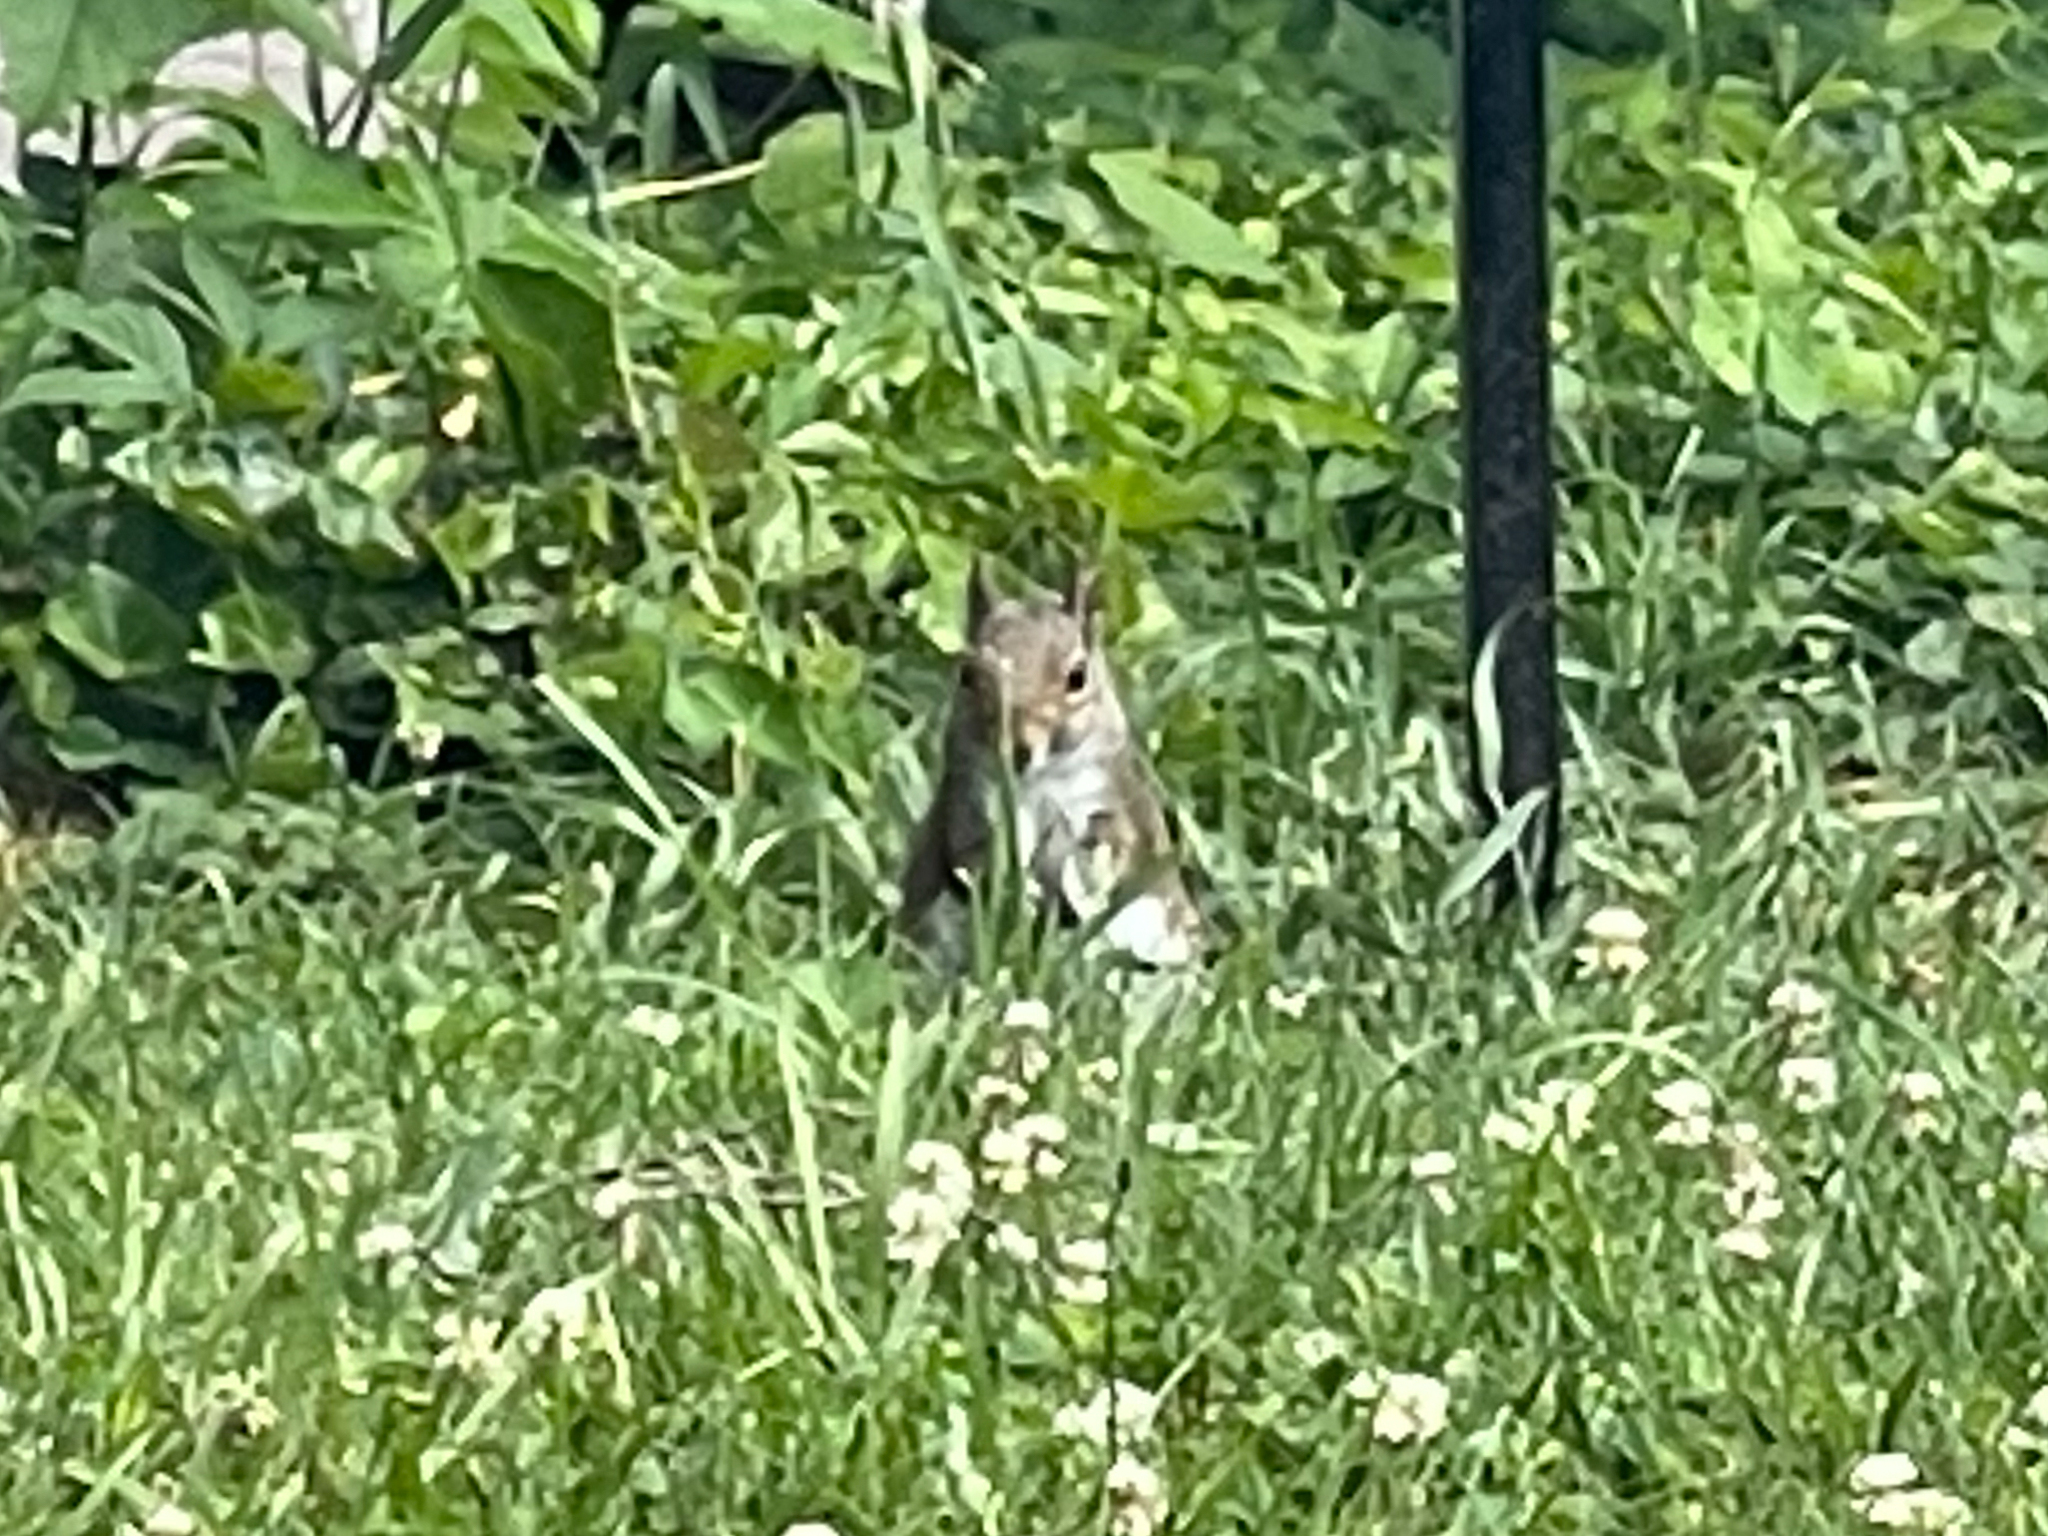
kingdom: Animalia
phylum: Chordata
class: Mammalia
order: Rodentia
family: Sciuridae
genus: Sciurus
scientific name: Sciurus carolinensis
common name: Eastern gray squirrel
